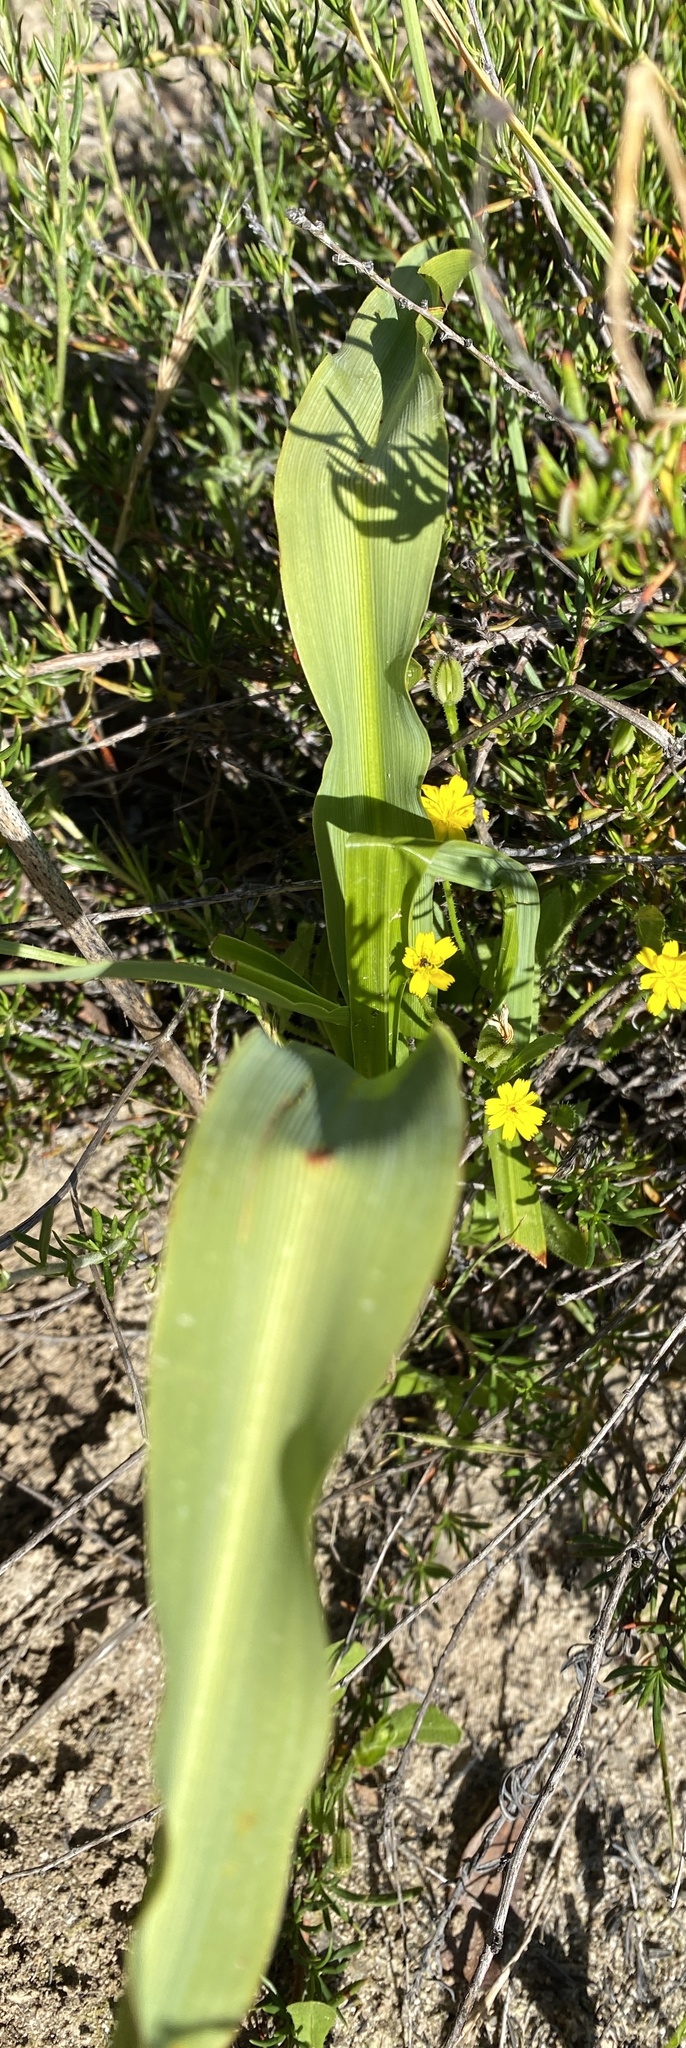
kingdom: Plantae
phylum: Tracheophyta
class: Liliopsida
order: Asparagales
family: Asparagaceae
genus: Chlorogalum
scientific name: Chlorogalum pomeridianum
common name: Amole
